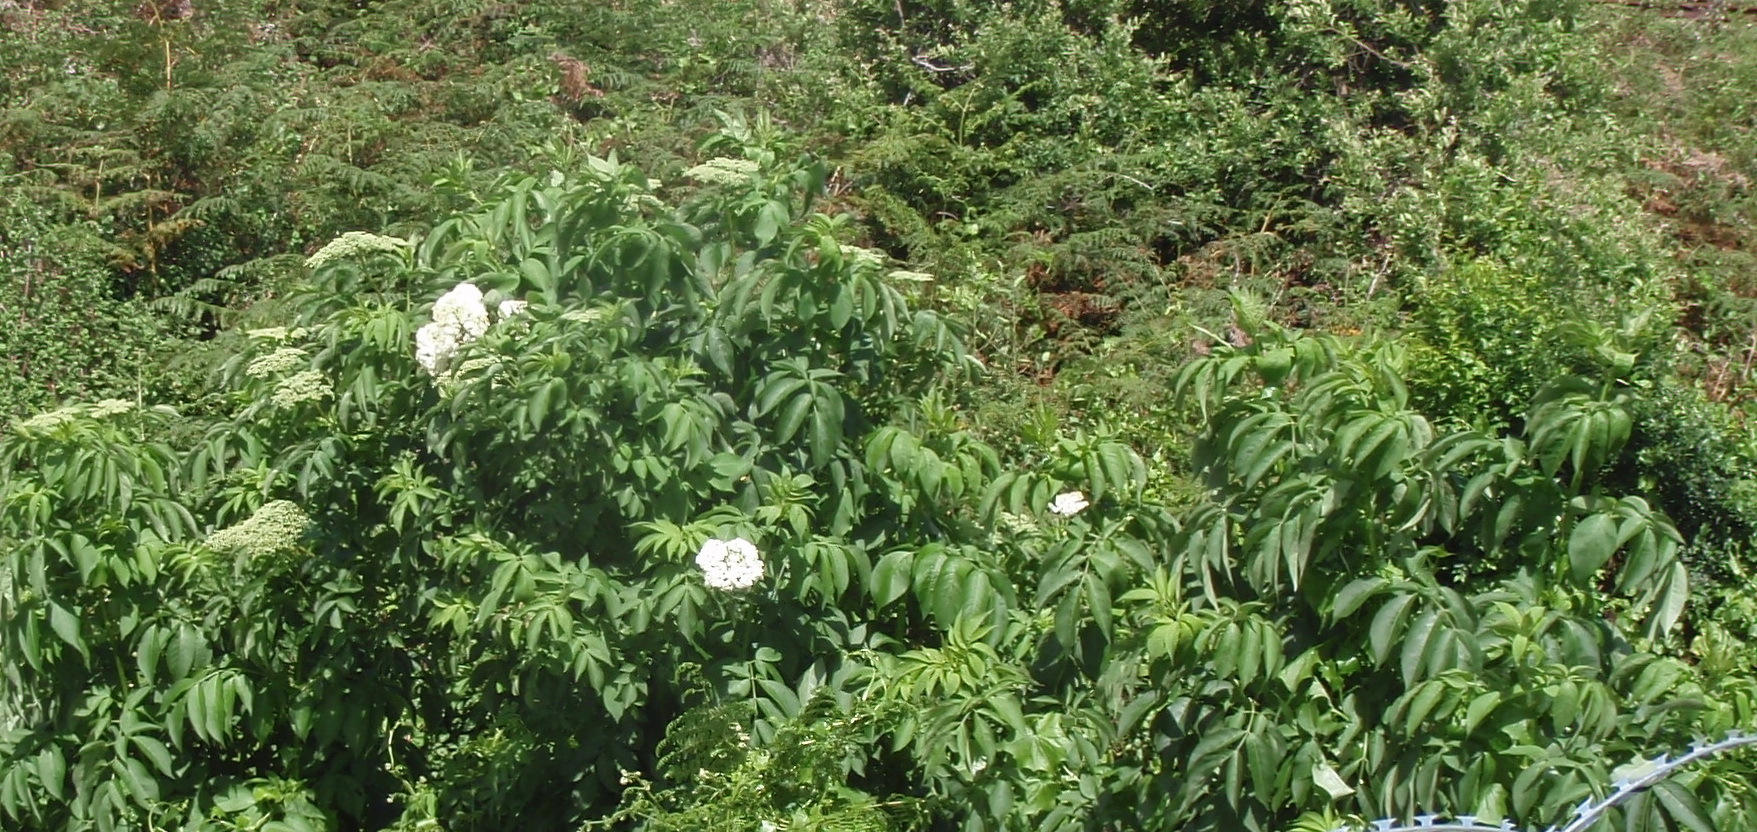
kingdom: Plantae
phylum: Tracheophyta
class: Magnoliopsida
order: Dipsacales
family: Viburnaceae
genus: Sambucus
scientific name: Sambucus nigra
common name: Elder
